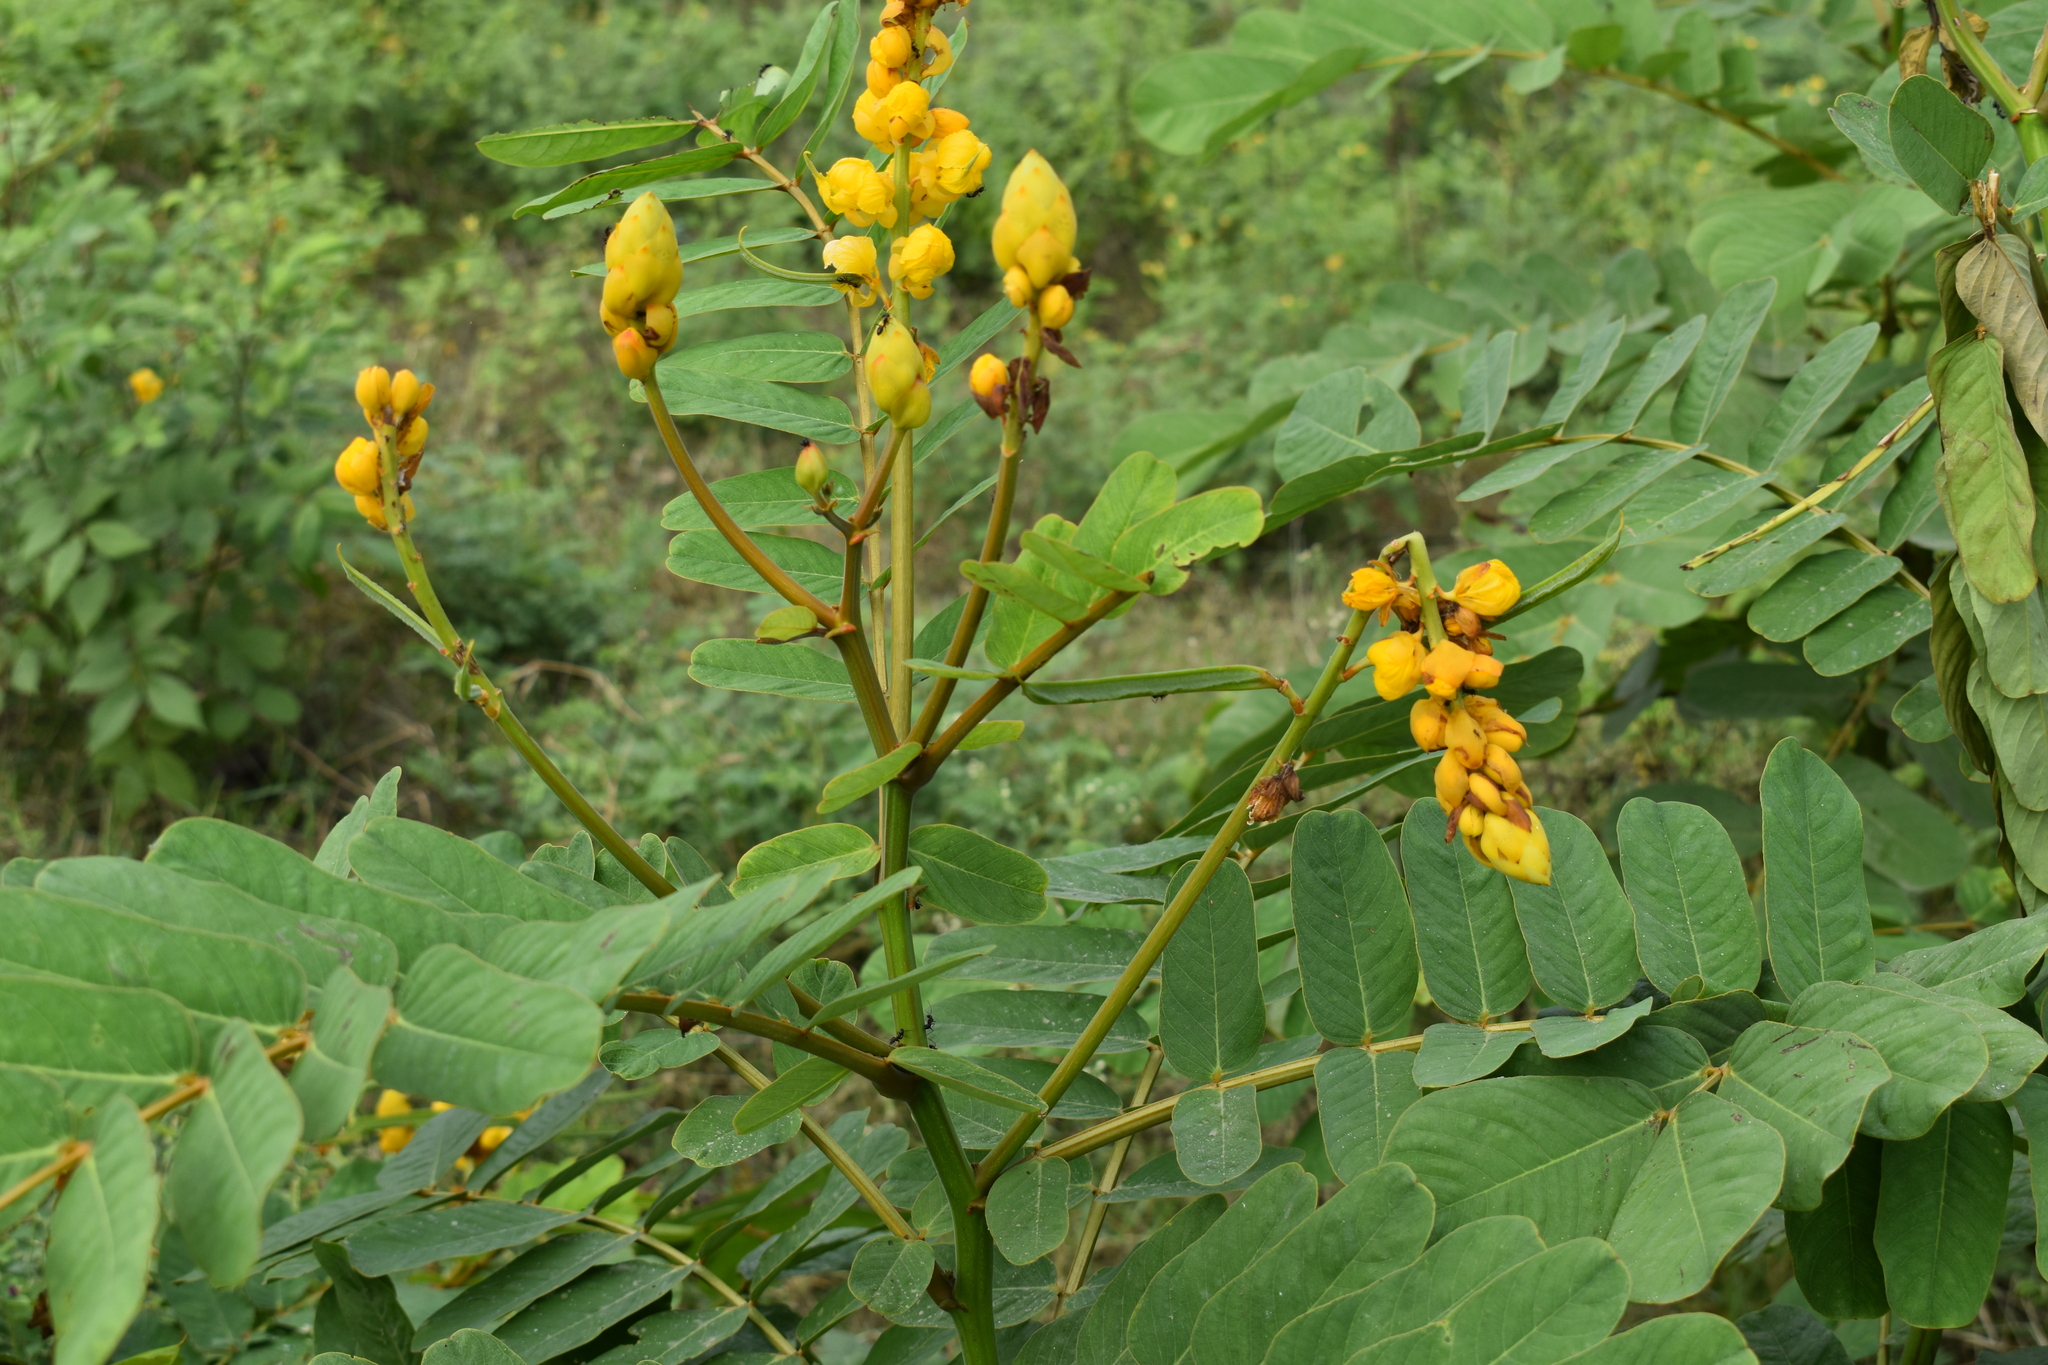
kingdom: Plantae
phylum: Tracheophyta
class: Magnoliopsida
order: Fabales
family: Fabaceae
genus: Senna
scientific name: Senna alata
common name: Emperor's candlesticks
